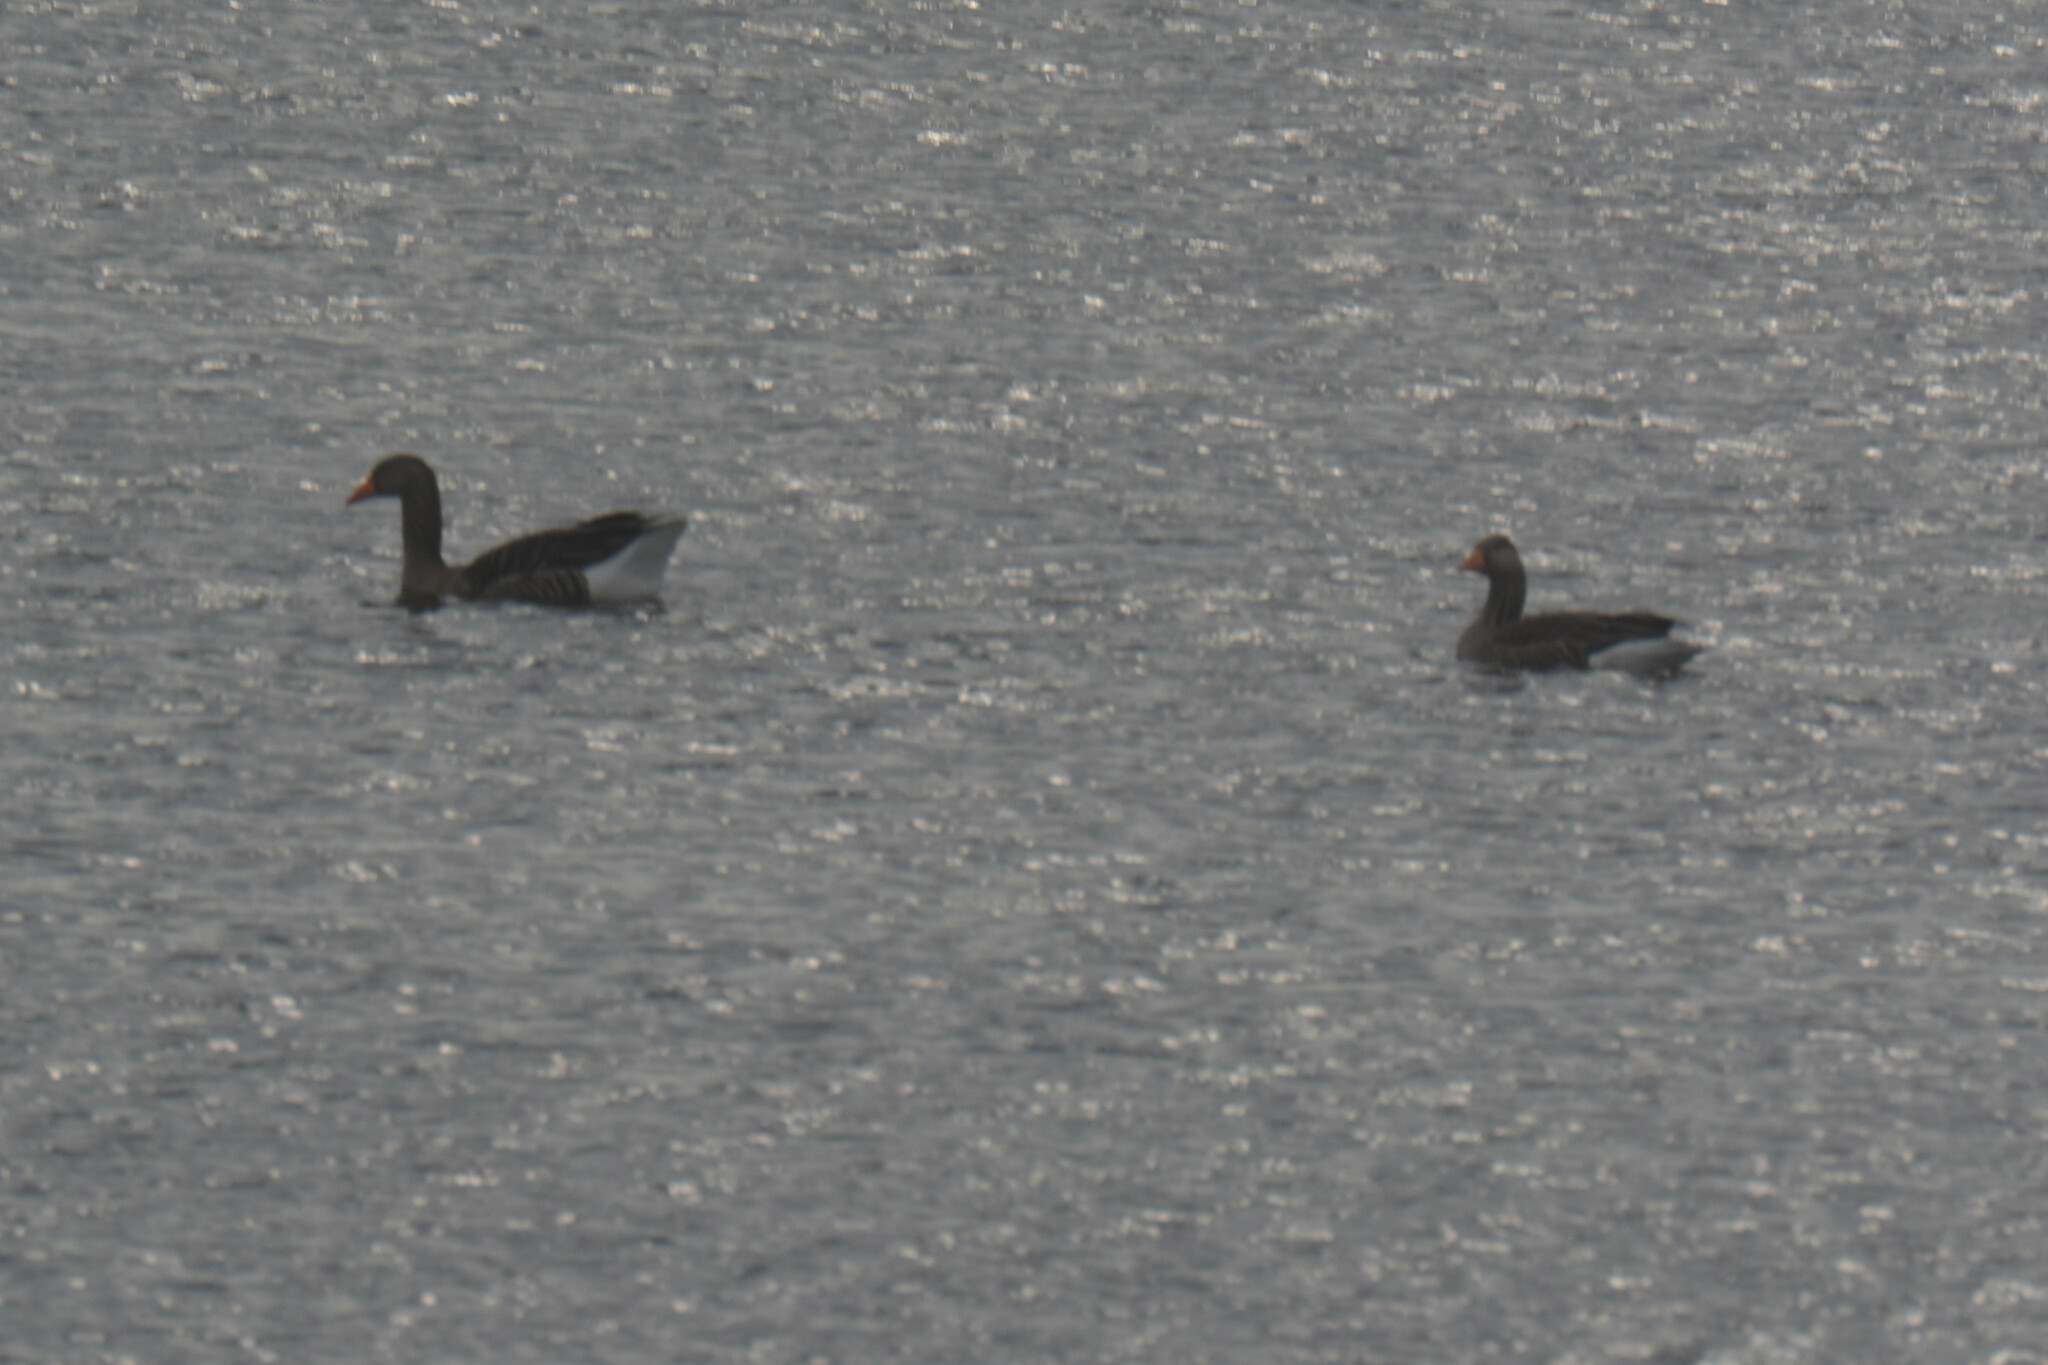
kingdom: Animalia
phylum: Chordata
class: Aves
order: Anseriformes
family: Anatidae
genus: Anser
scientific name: Anser anser
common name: Greylag goose
